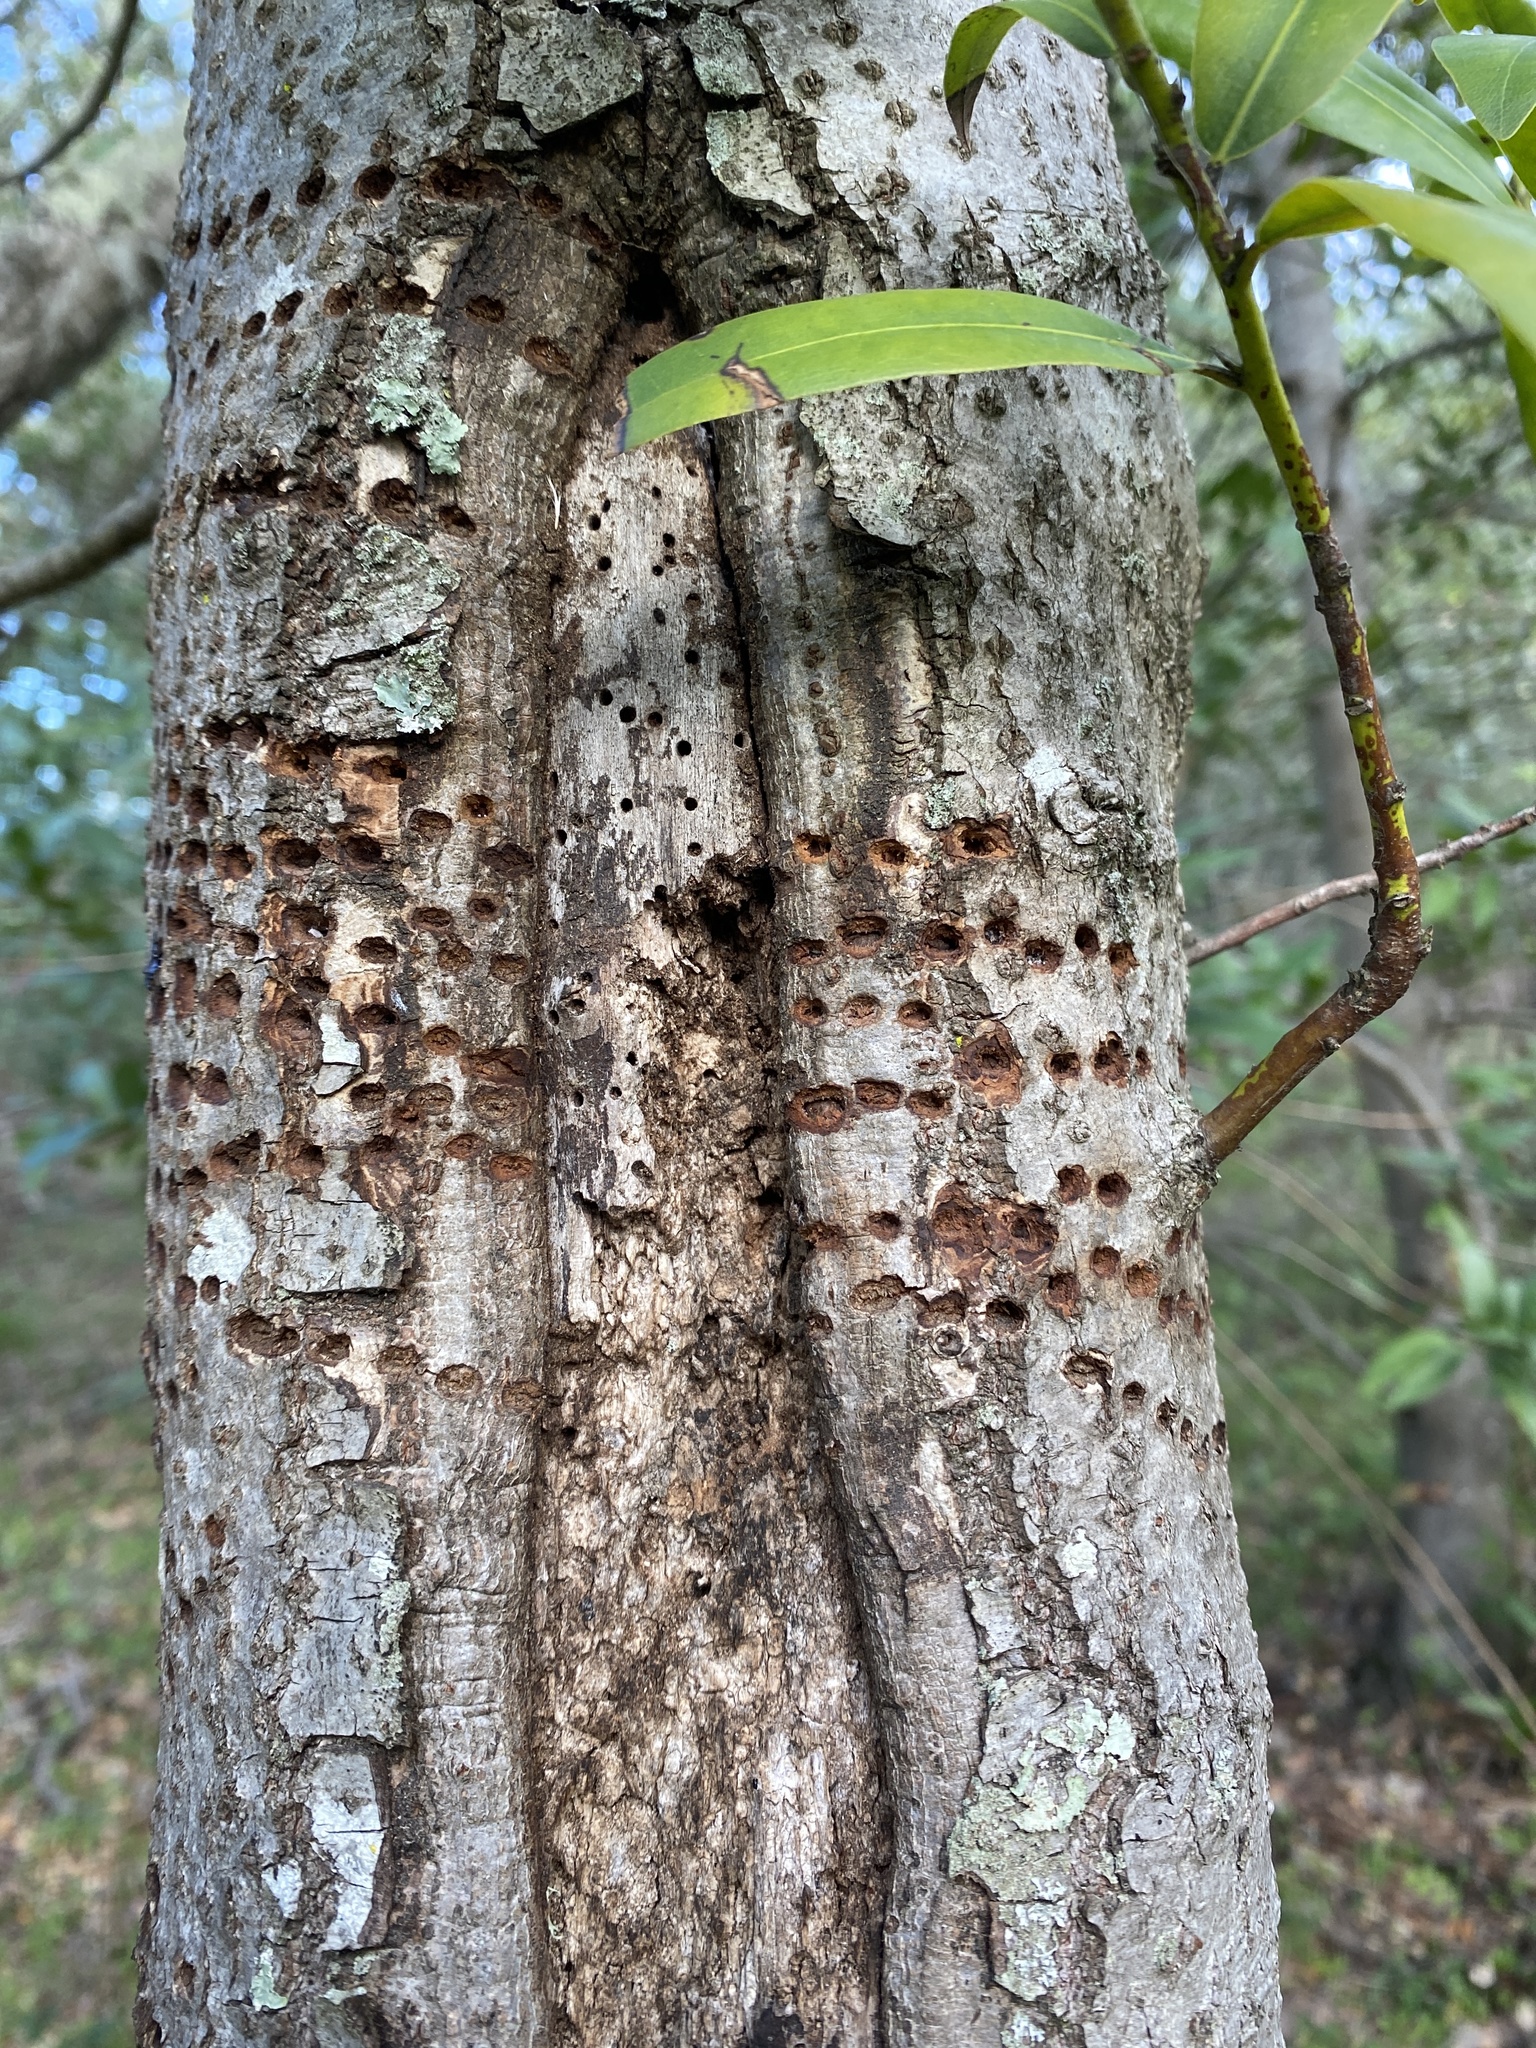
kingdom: Animalia
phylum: Chordata
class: Aves
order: Piciformes
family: Picidae
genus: Sphyrapicus
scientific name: Sphyrapicus
